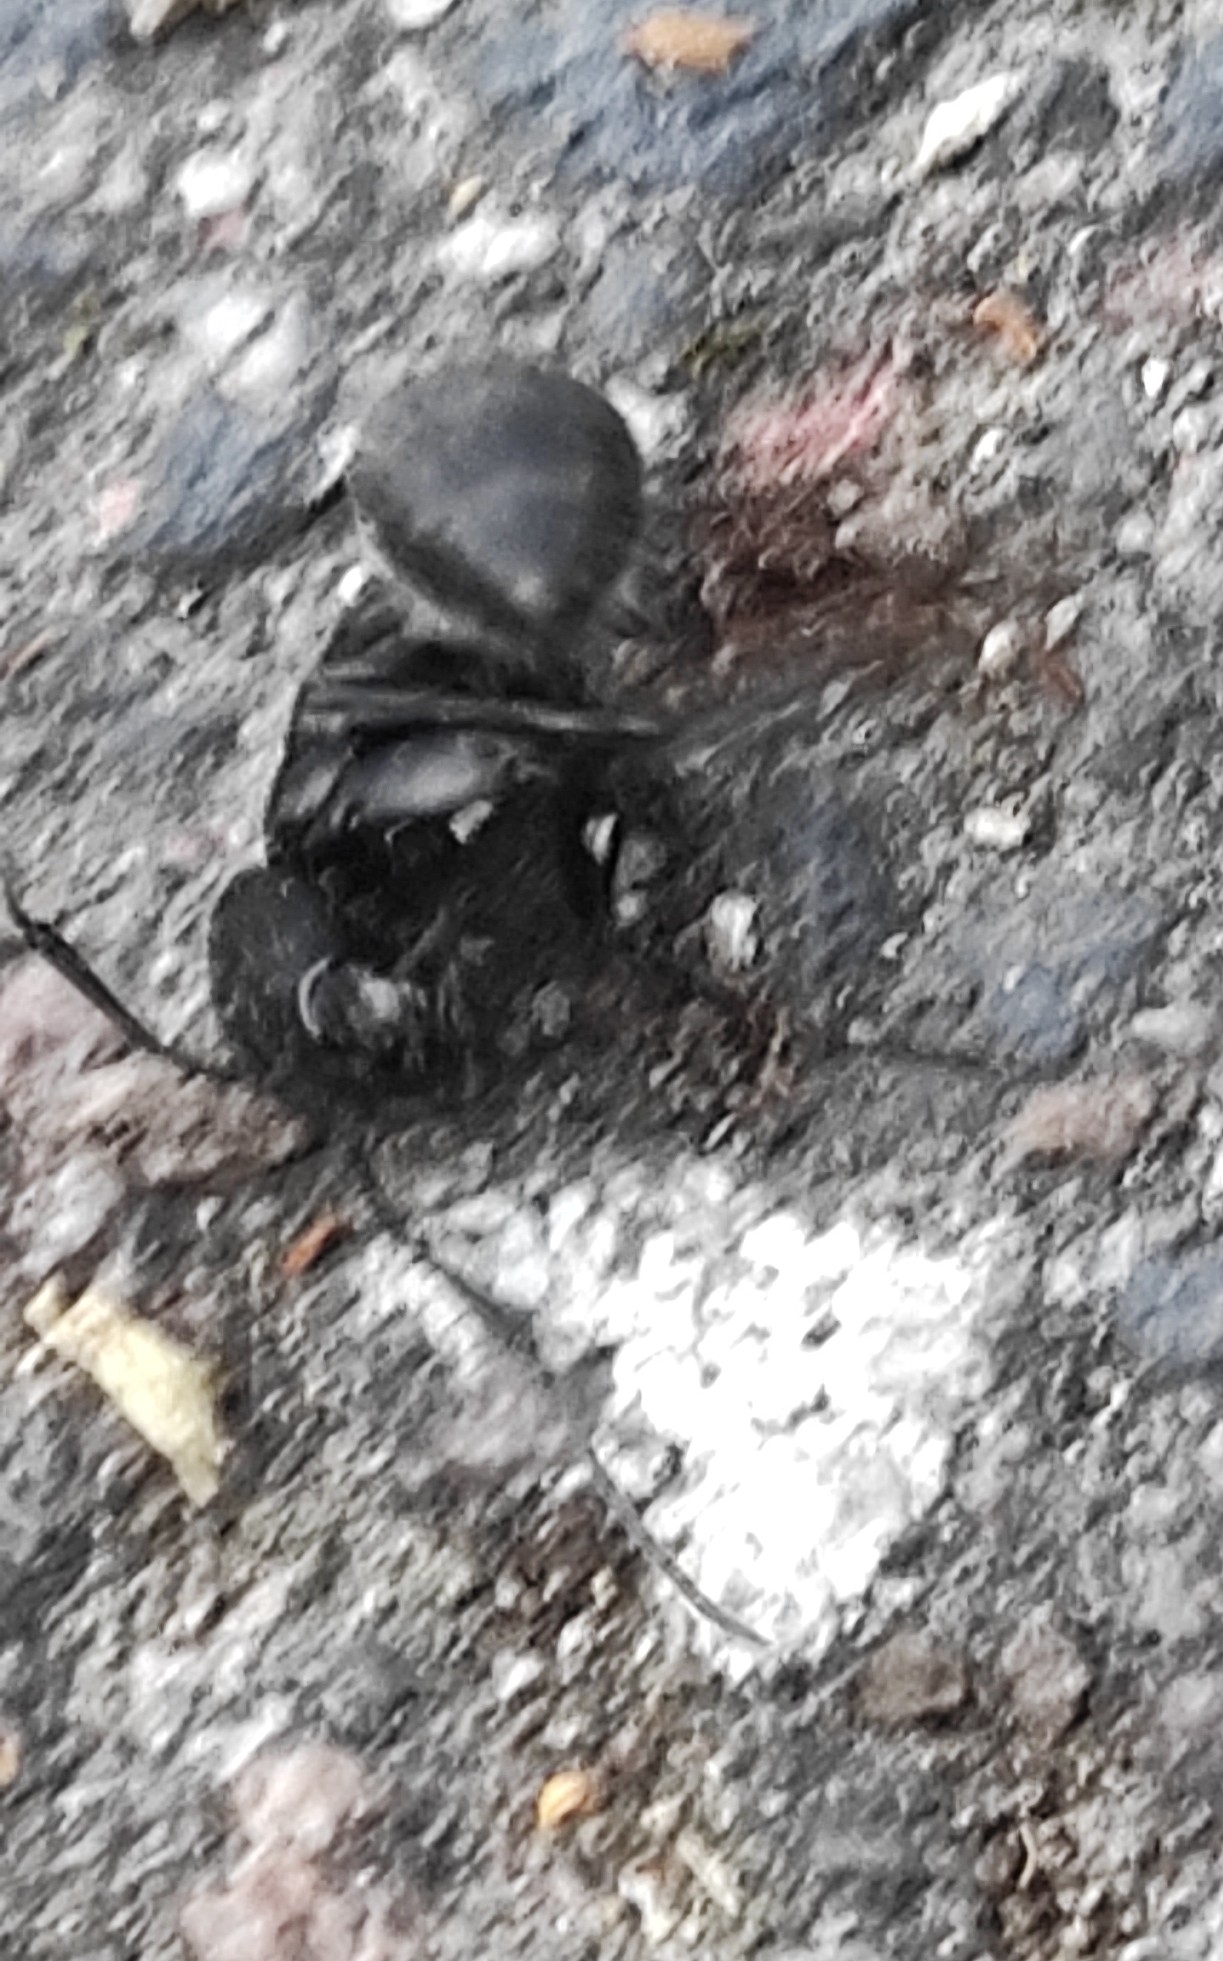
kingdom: Animalia
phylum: Arthropoda
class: Insecta
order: Hymenoptera
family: Formicidae
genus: Camponotus
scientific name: Camponotus vagus
